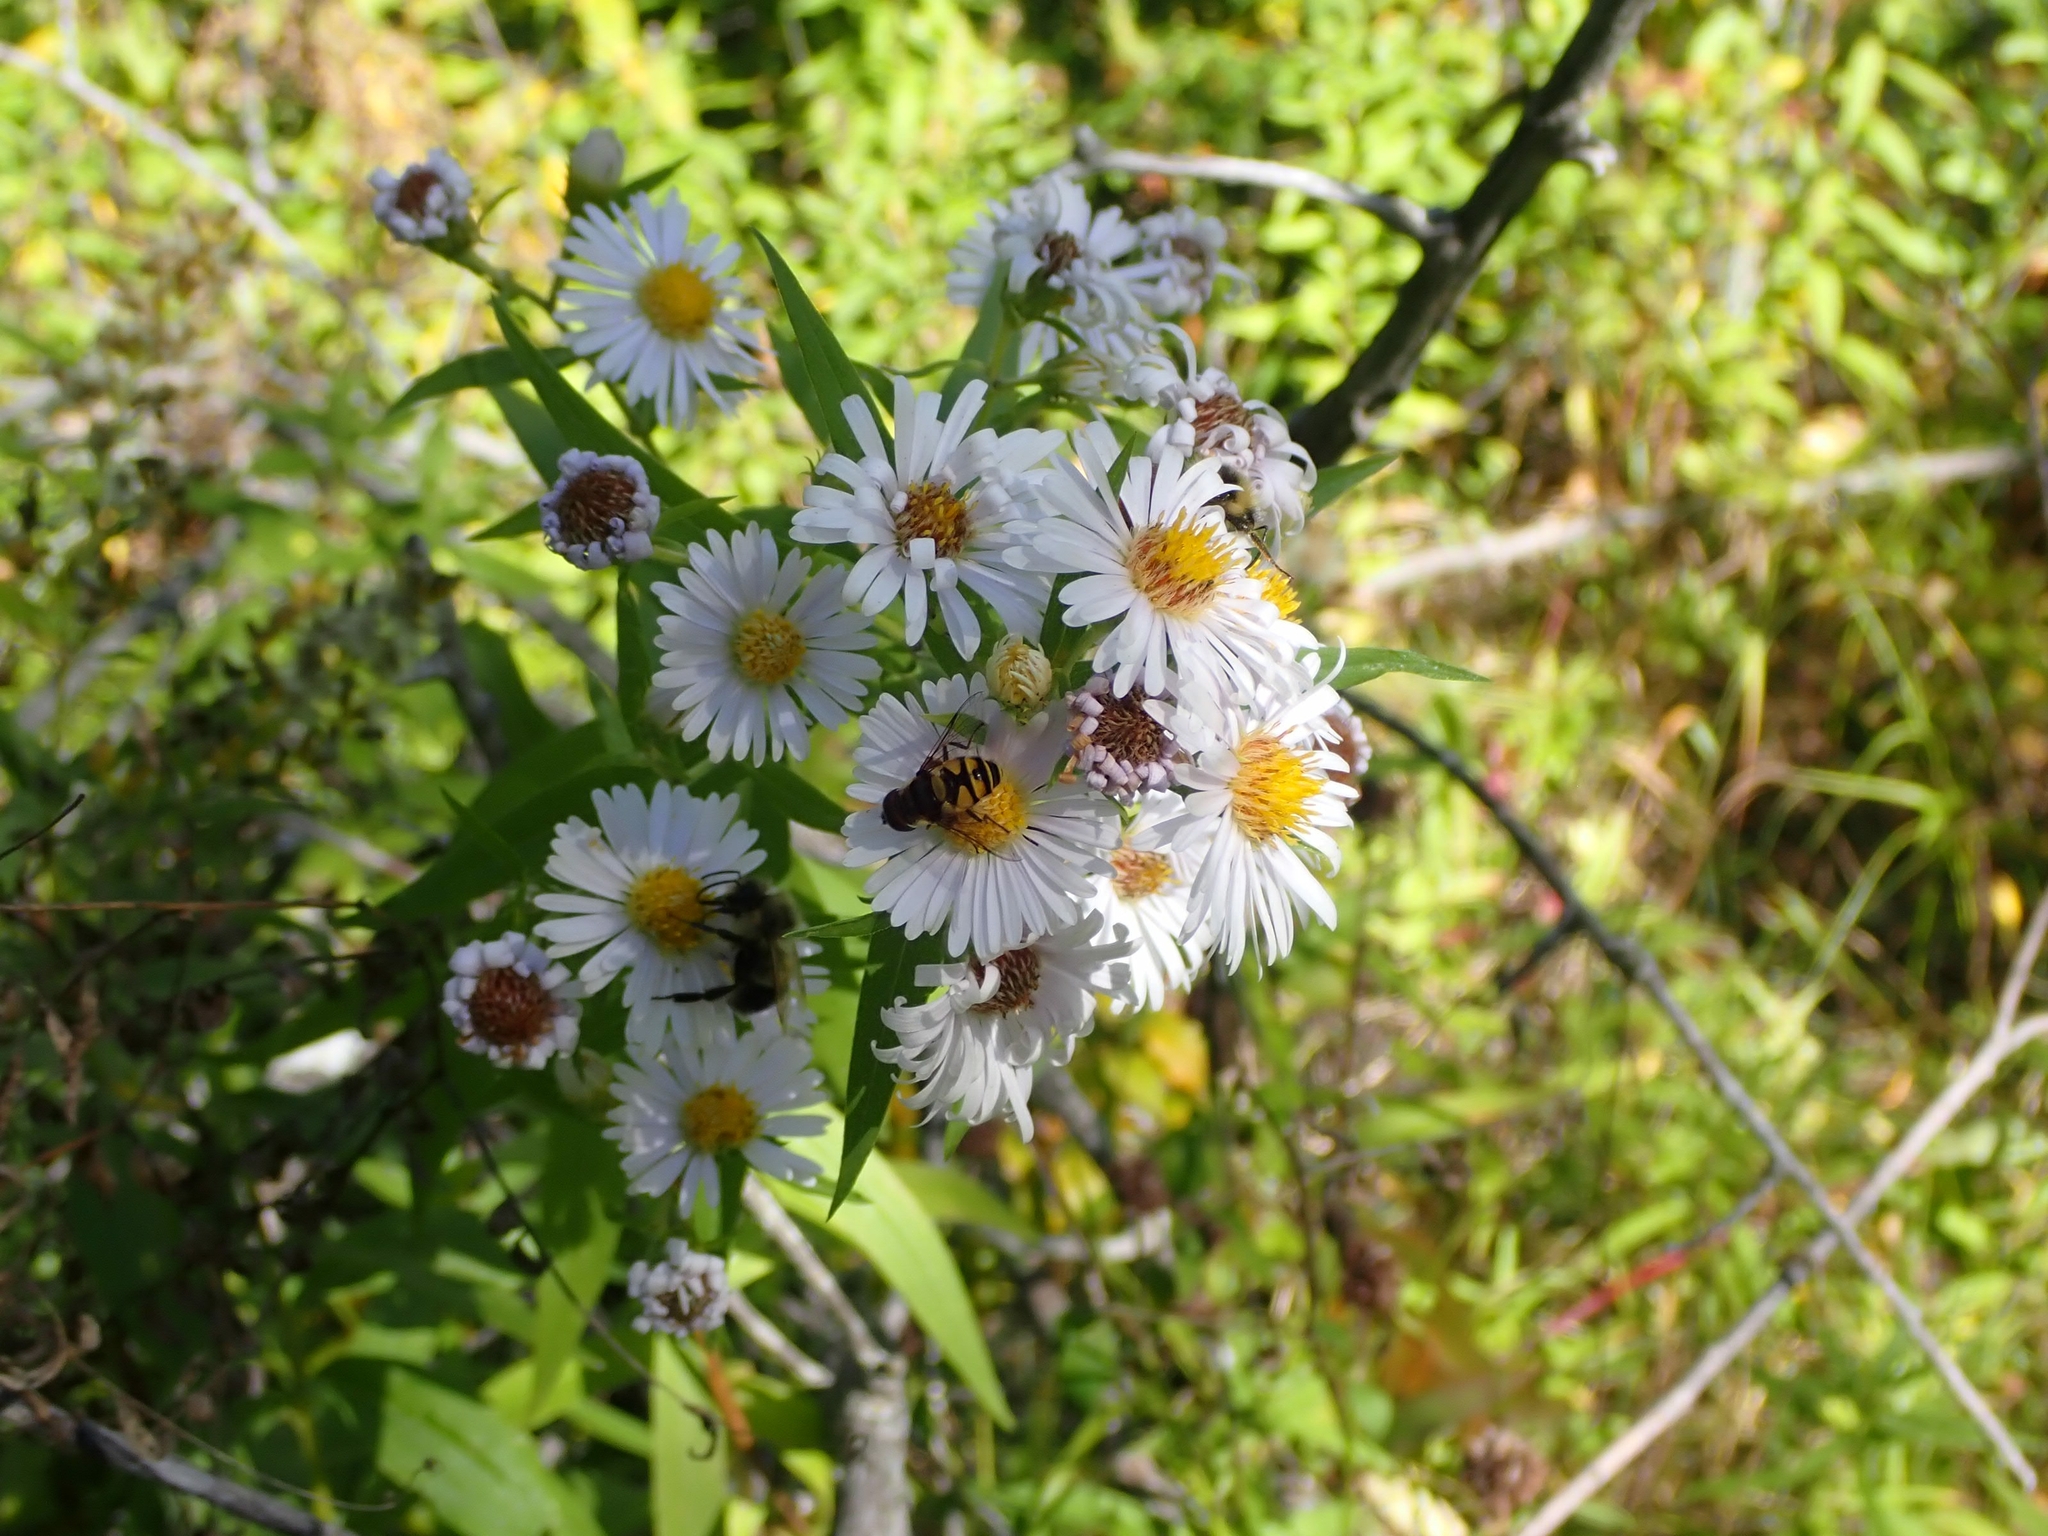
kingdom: Plantae
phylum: Tracheophyta
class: Magnoliopsida
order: Asterales
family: Asteraceae
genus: Symphyotrichum
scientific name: Symphyotrichum lanceolatum
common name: Panicled aster
